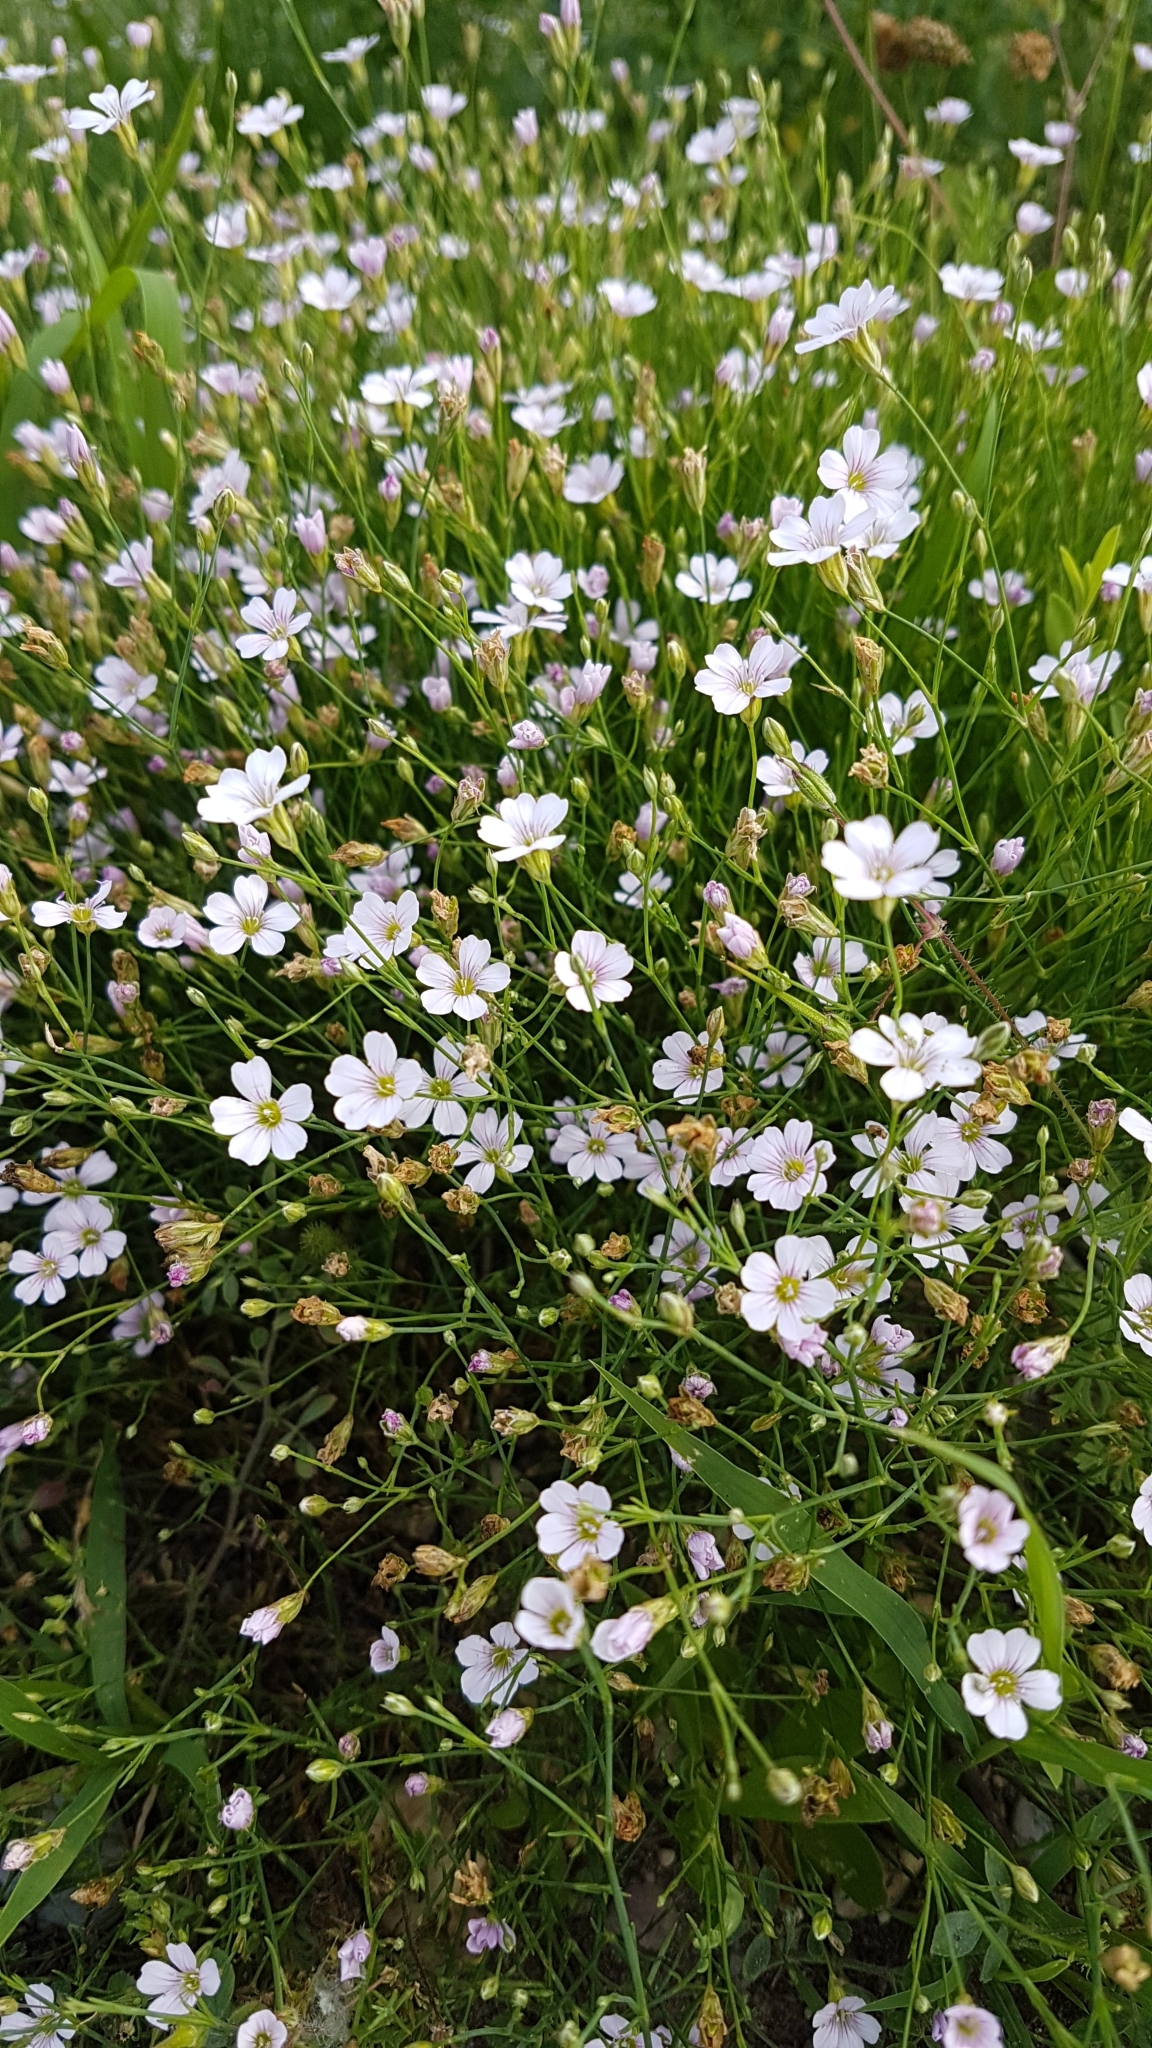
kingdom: Plantae
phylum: Tracheophyta
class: Magnoliopsida
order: Caryophyllales
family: Caryophyllaceae
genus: Petrorhagia
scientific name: Petrorhagia saxifraga
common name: Tunicflower
